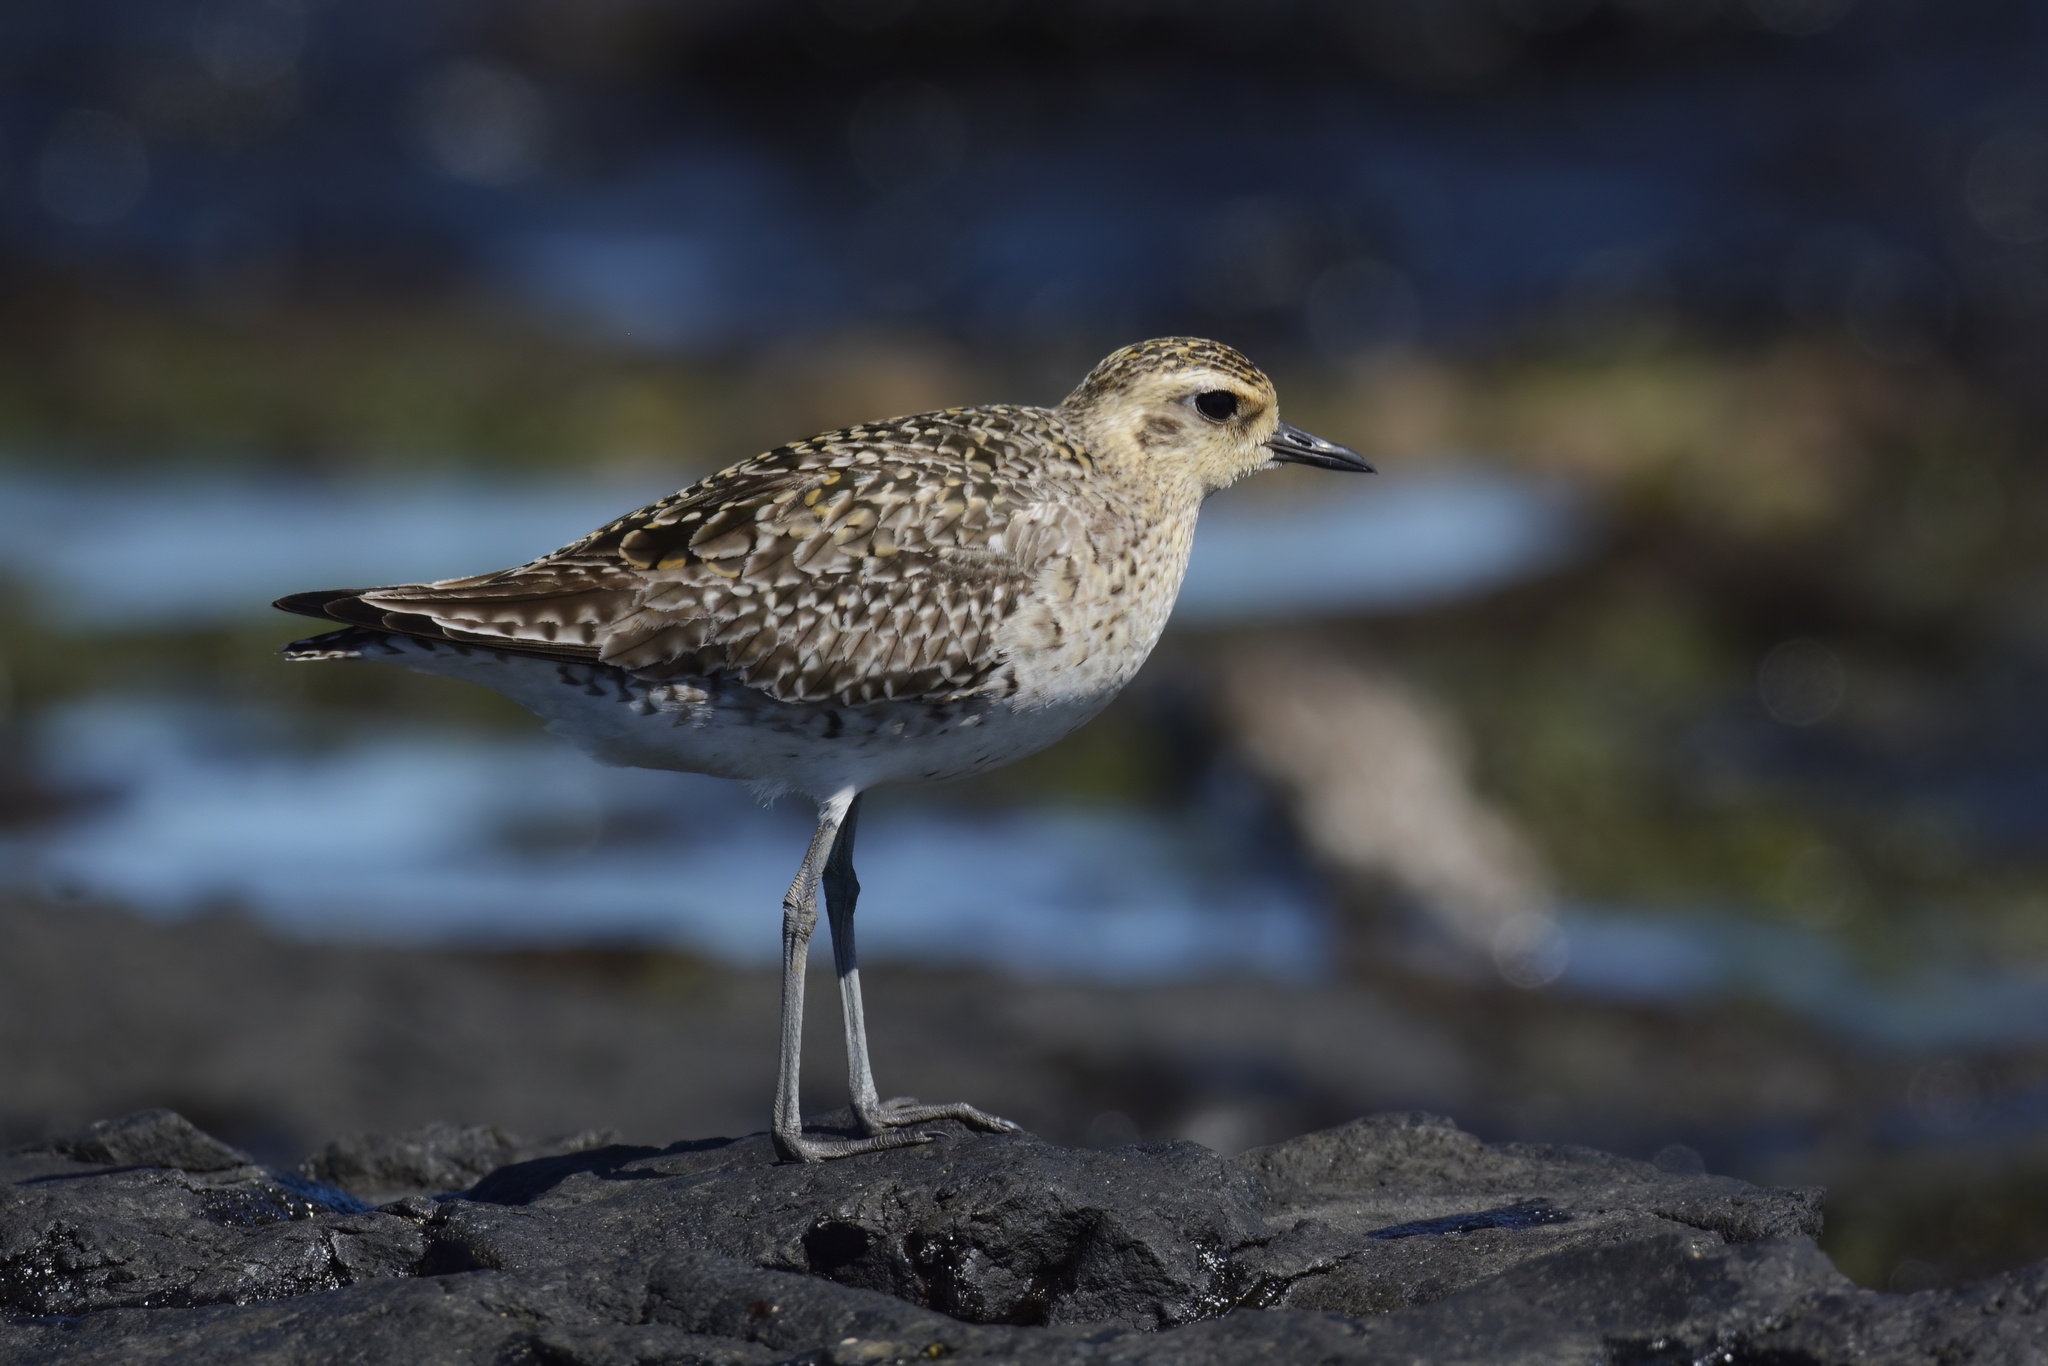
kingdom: Animalia
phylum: Chordata
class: Aves
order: Charadriiformes
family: Charadriidae
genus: Pluvialis
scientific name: Pluvialis fulva
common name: Pacific golden plover
